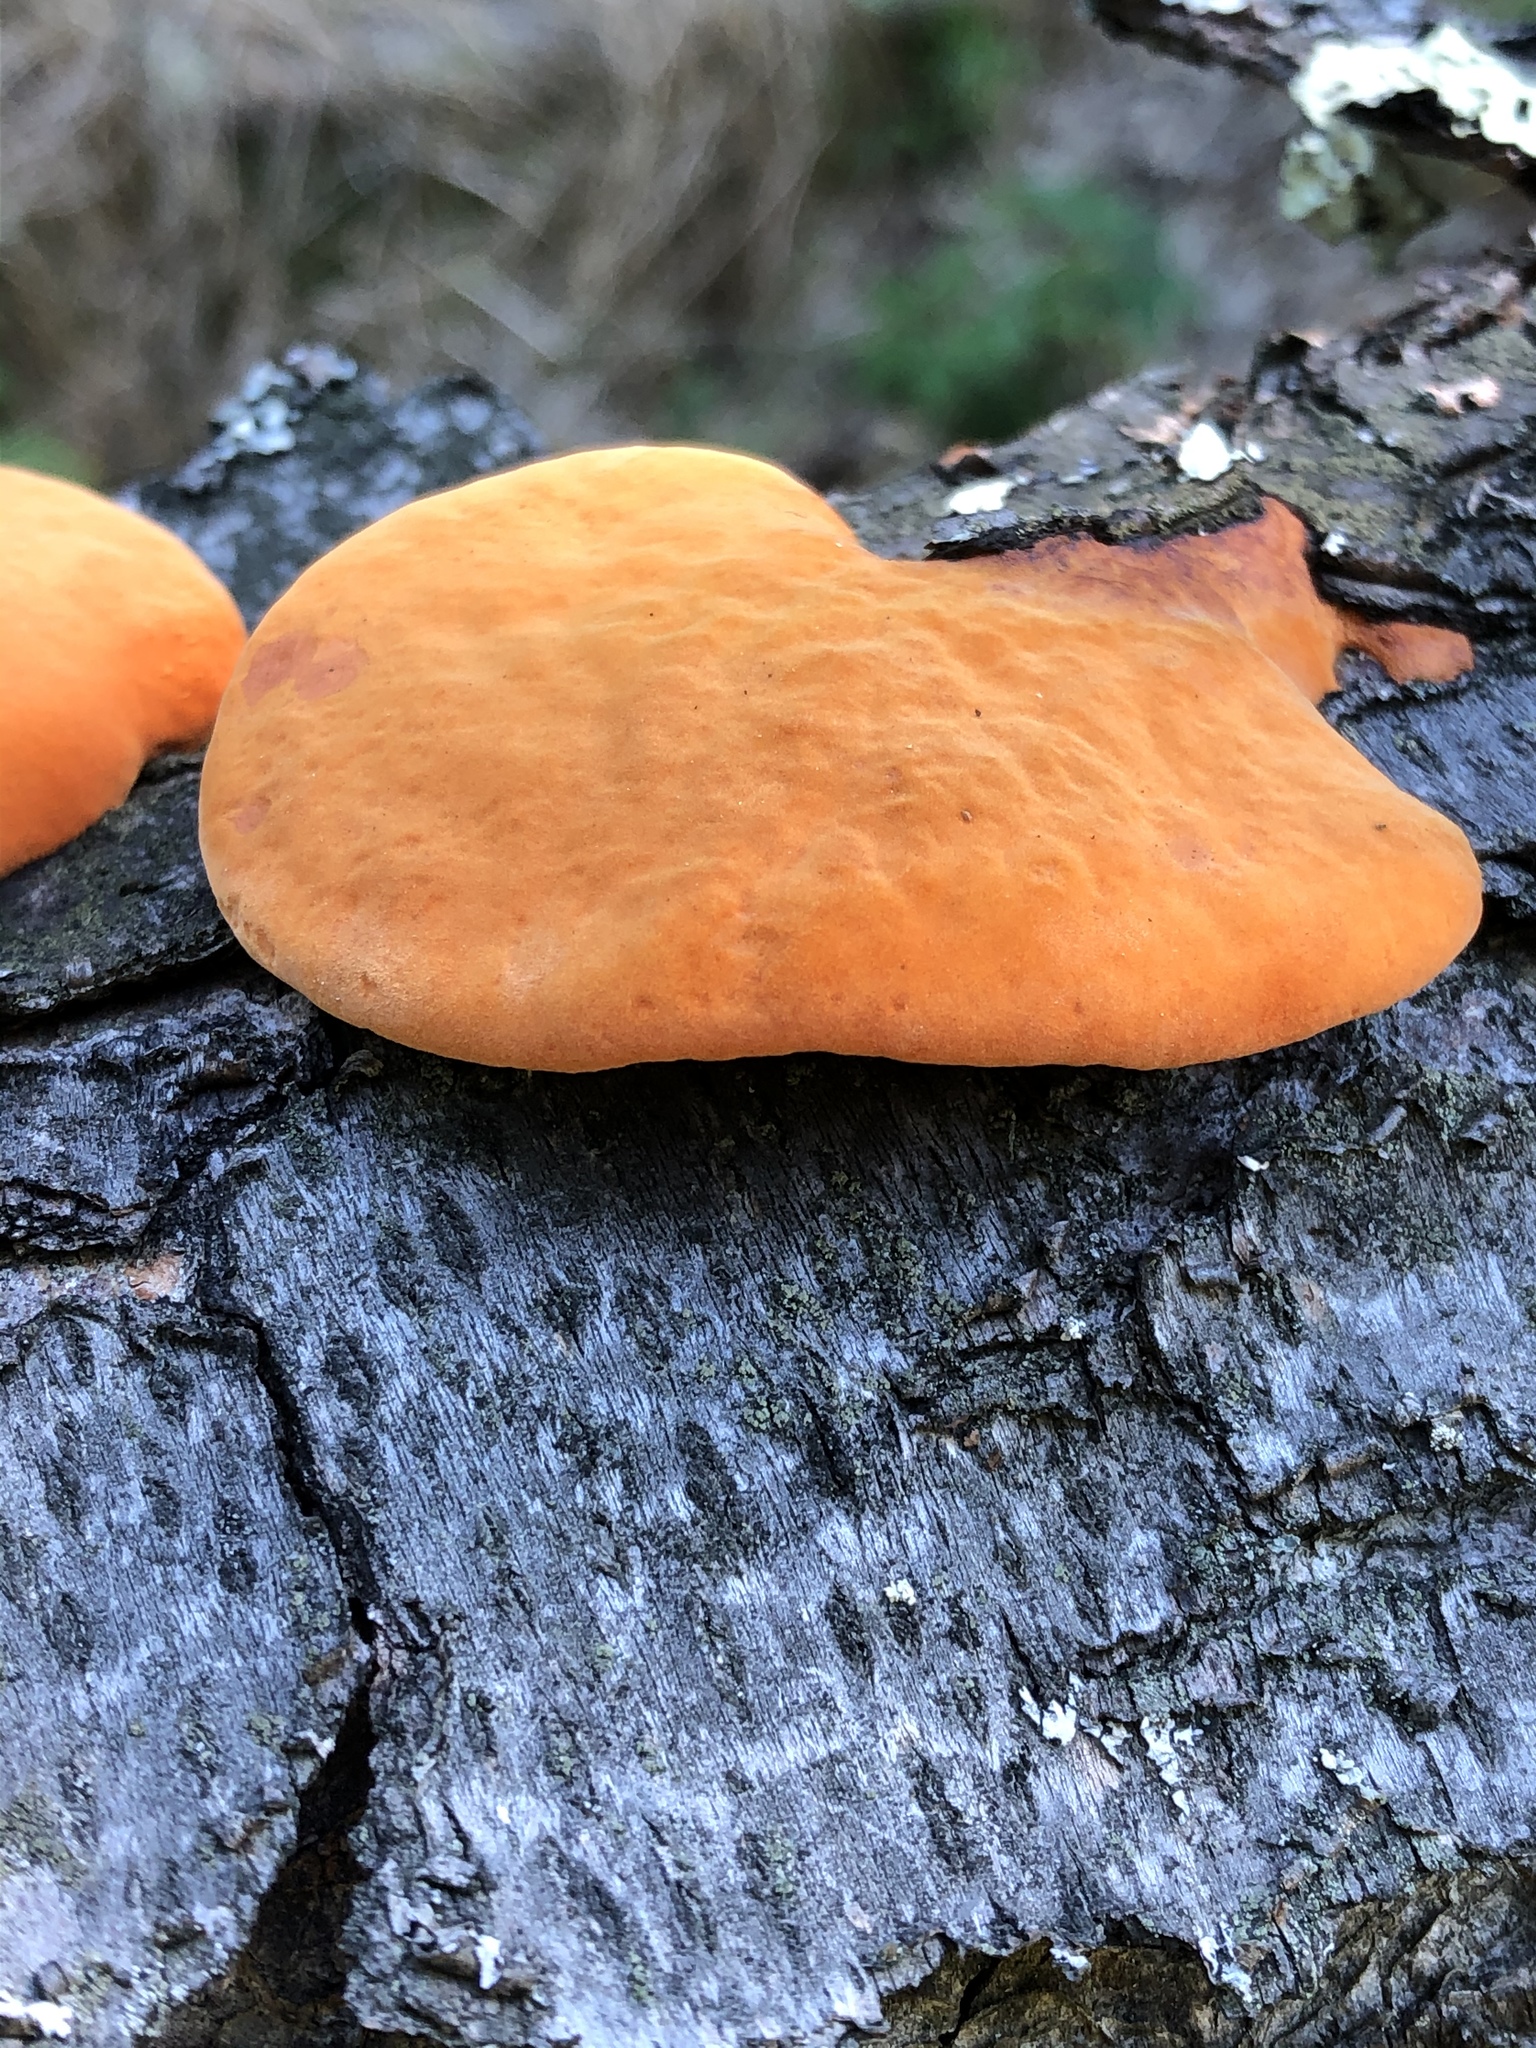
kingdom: Fungi
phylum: Basidiomycota
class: Agaricomycetes
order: Polyporales
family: Polyporaceae
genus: Trametes
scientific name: Trametes cinnabarina
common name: Northern cinnabar polypore
